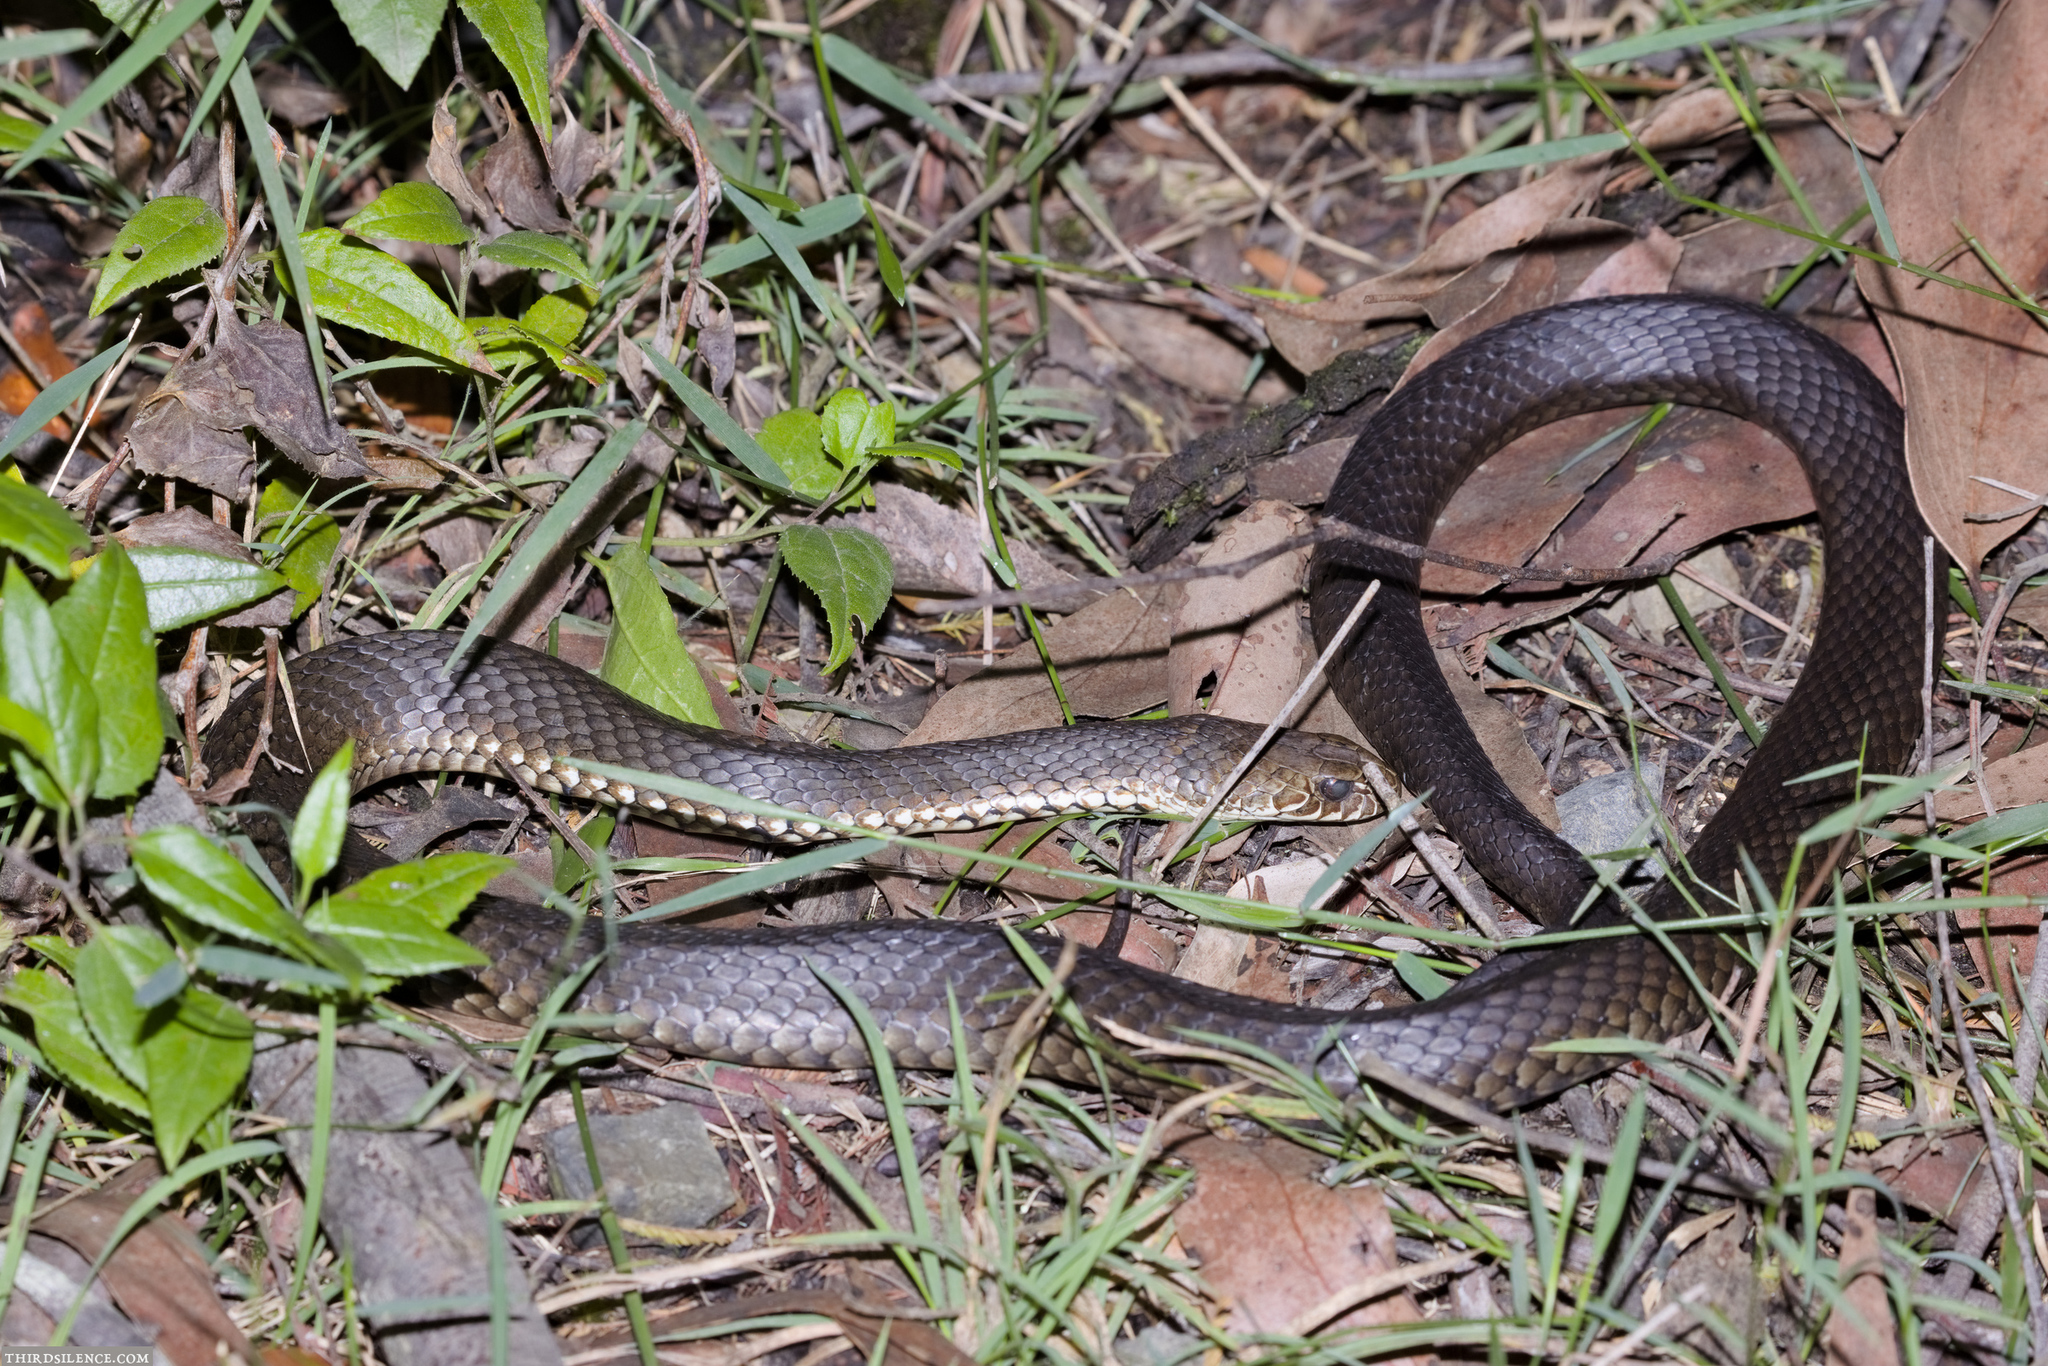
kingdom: Animalia
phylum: Chordata
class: Squamata
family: Elapidae
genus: Austrelaps
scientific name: Austrelaps ramsayi
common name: Highlands copperhead
